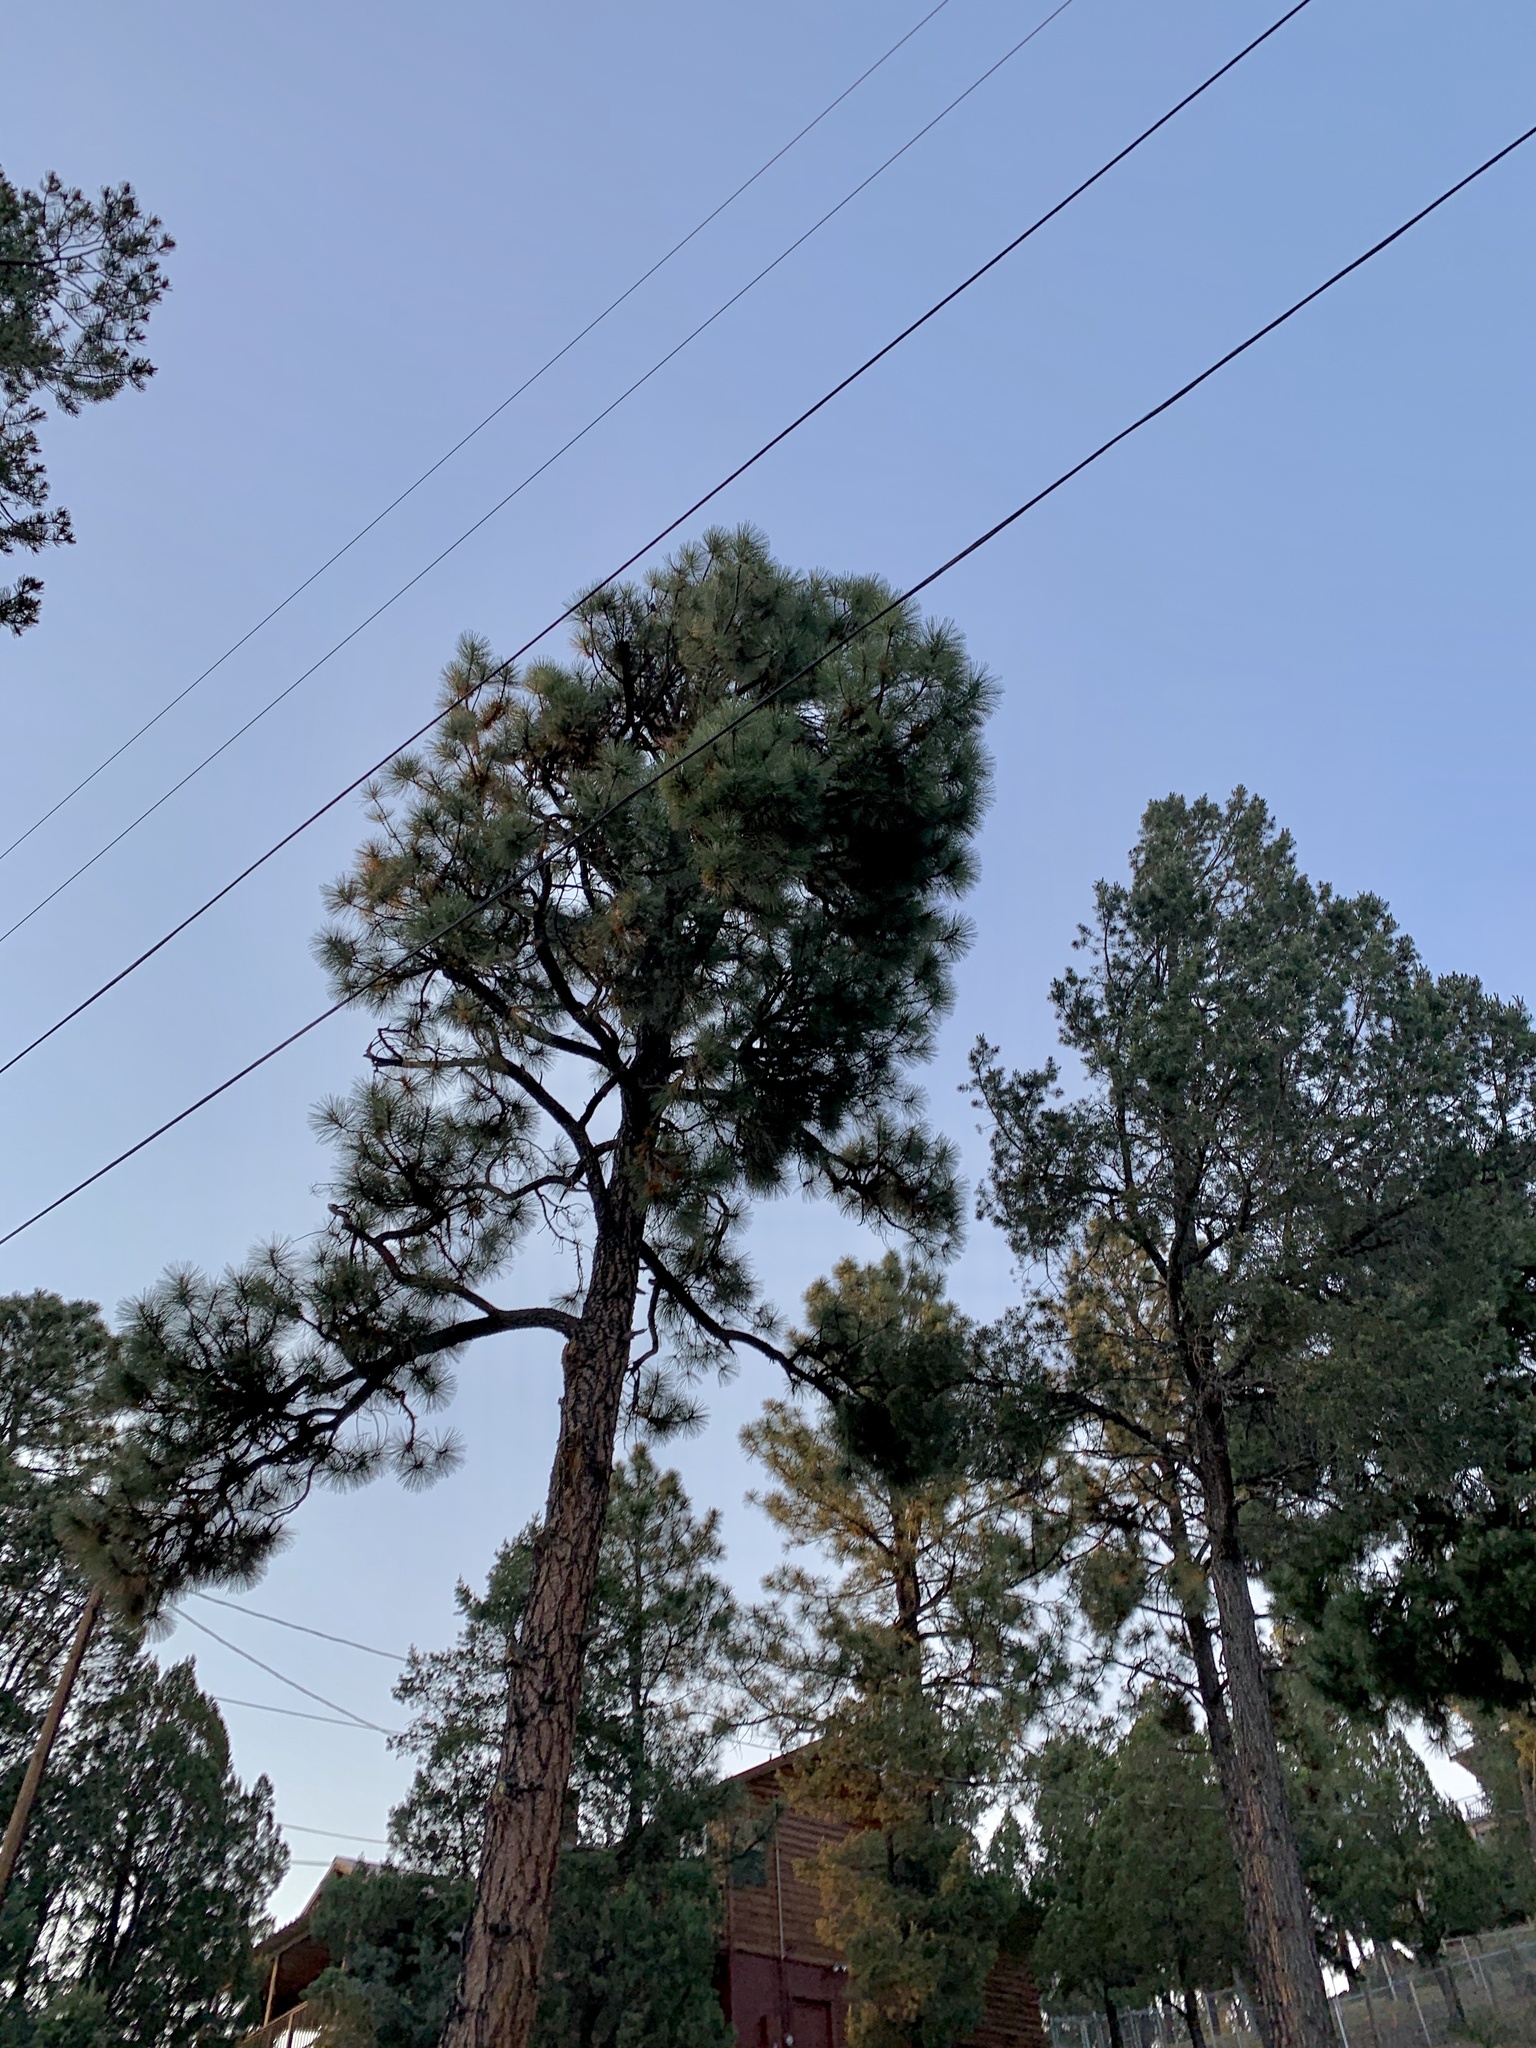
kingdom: Plantae
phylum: Tracheophyta
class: Pinopsida
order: Pinales
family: Pinaceae
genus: Pinus
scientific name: Pinus ponderosa
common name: Western yellow-pine
